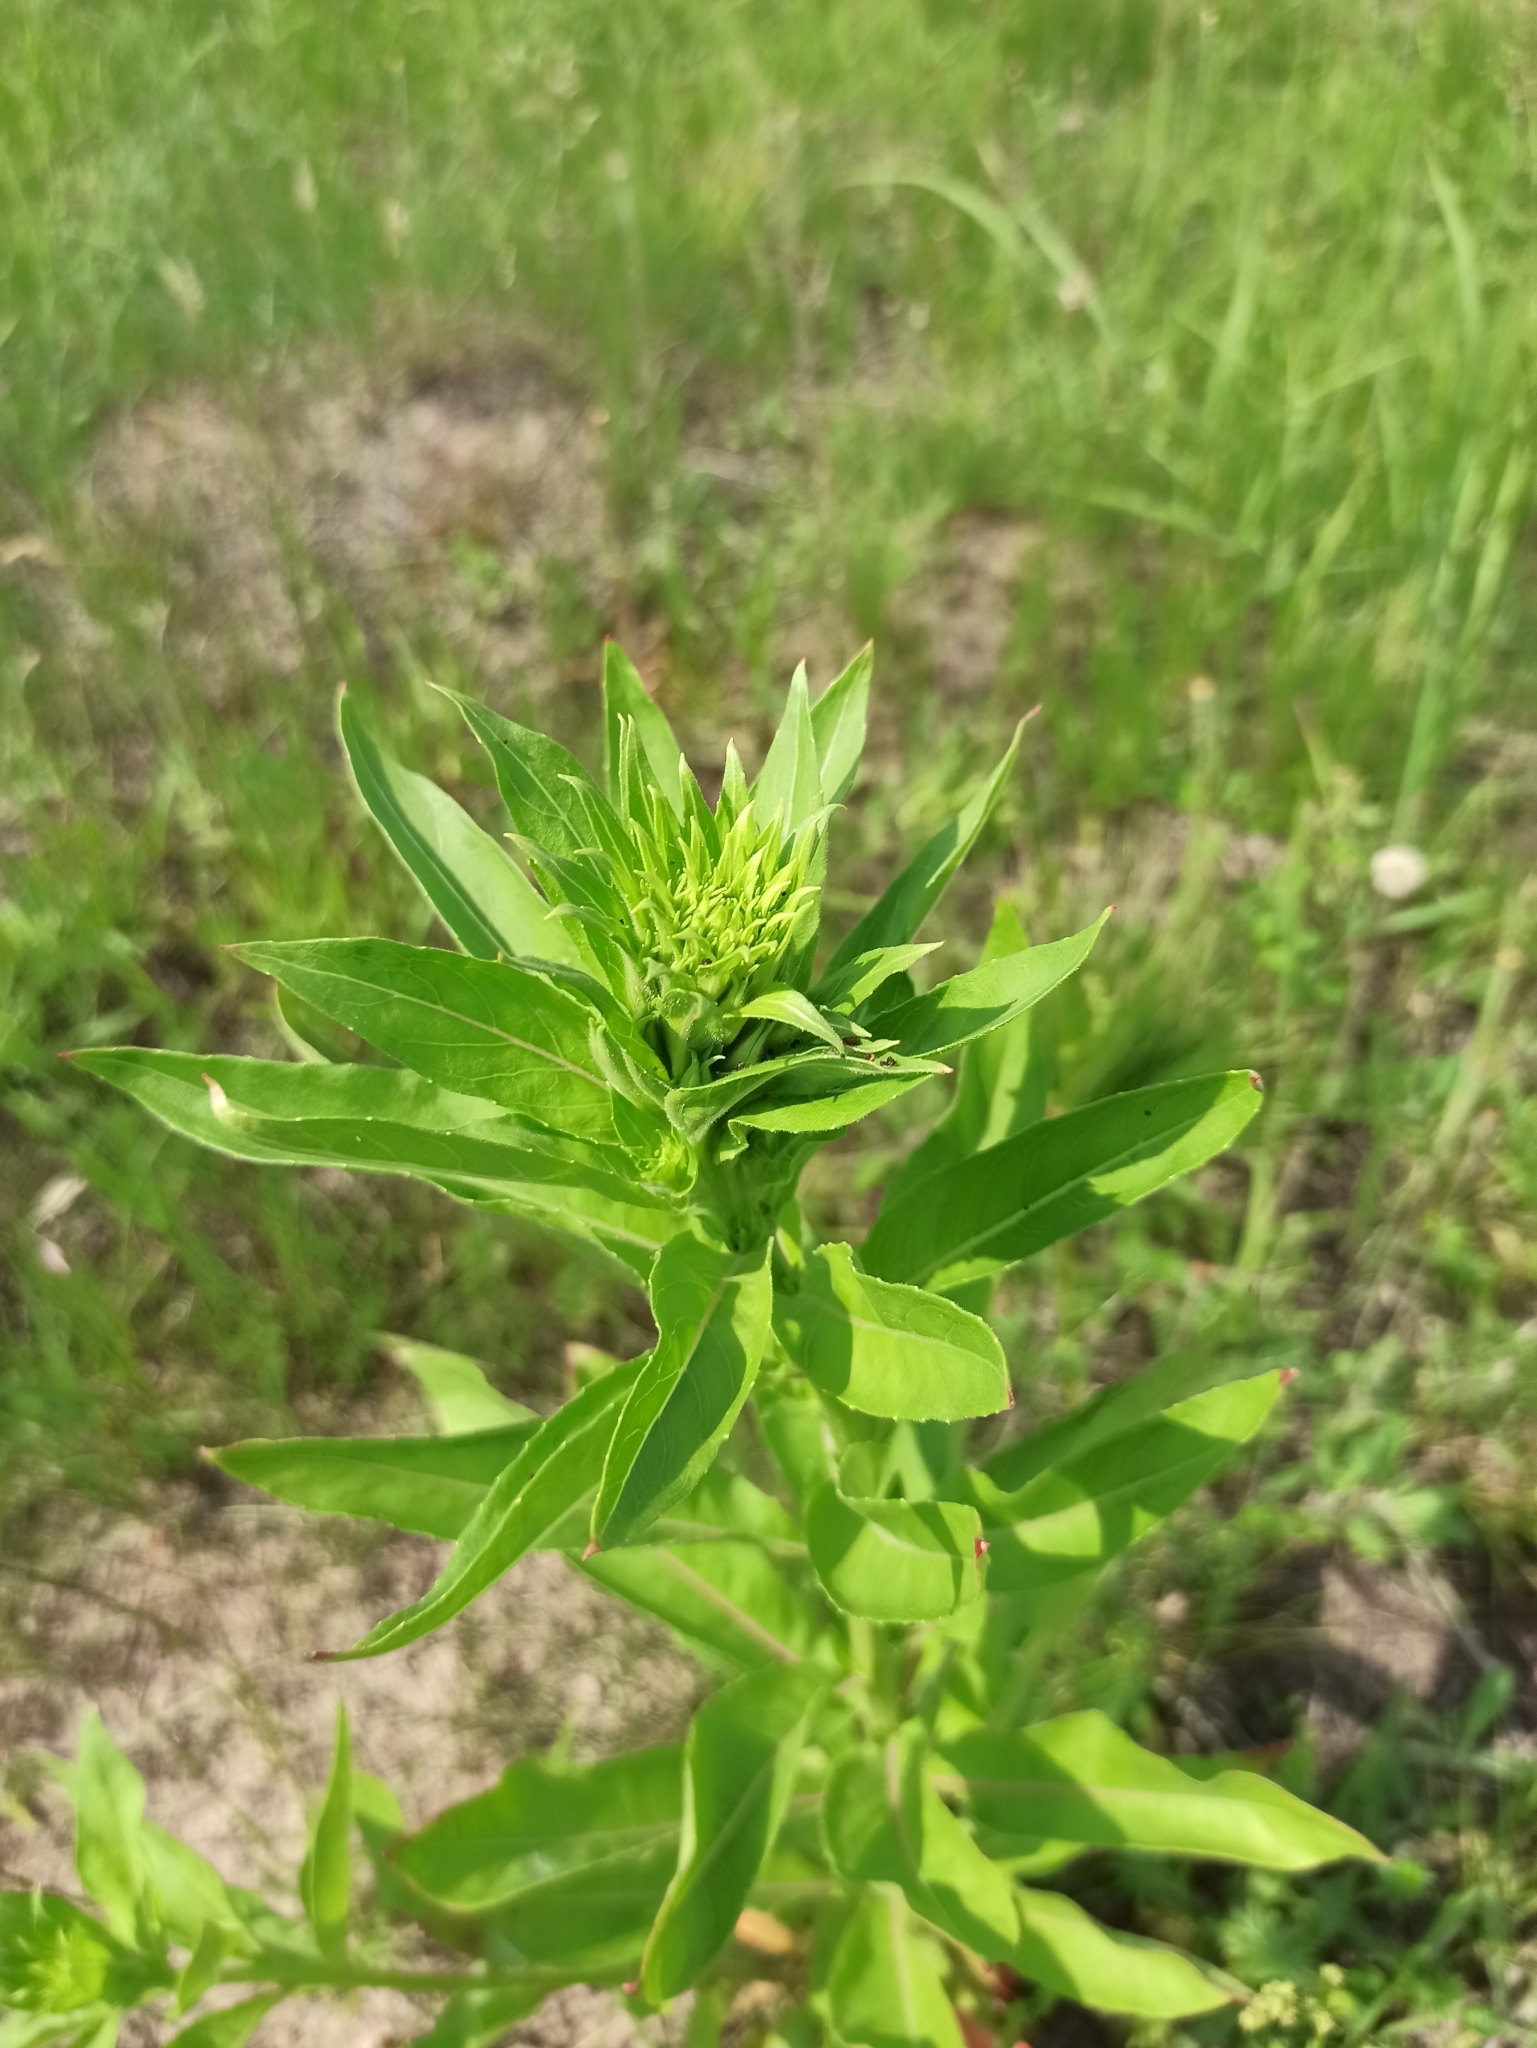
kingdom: Plantae
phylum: Tracheophyta
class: Magnoliopsida
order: Myrtales
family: Onagraceae
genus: Oenothera
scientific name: Oenothera biennis
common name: Common evening-primrose
